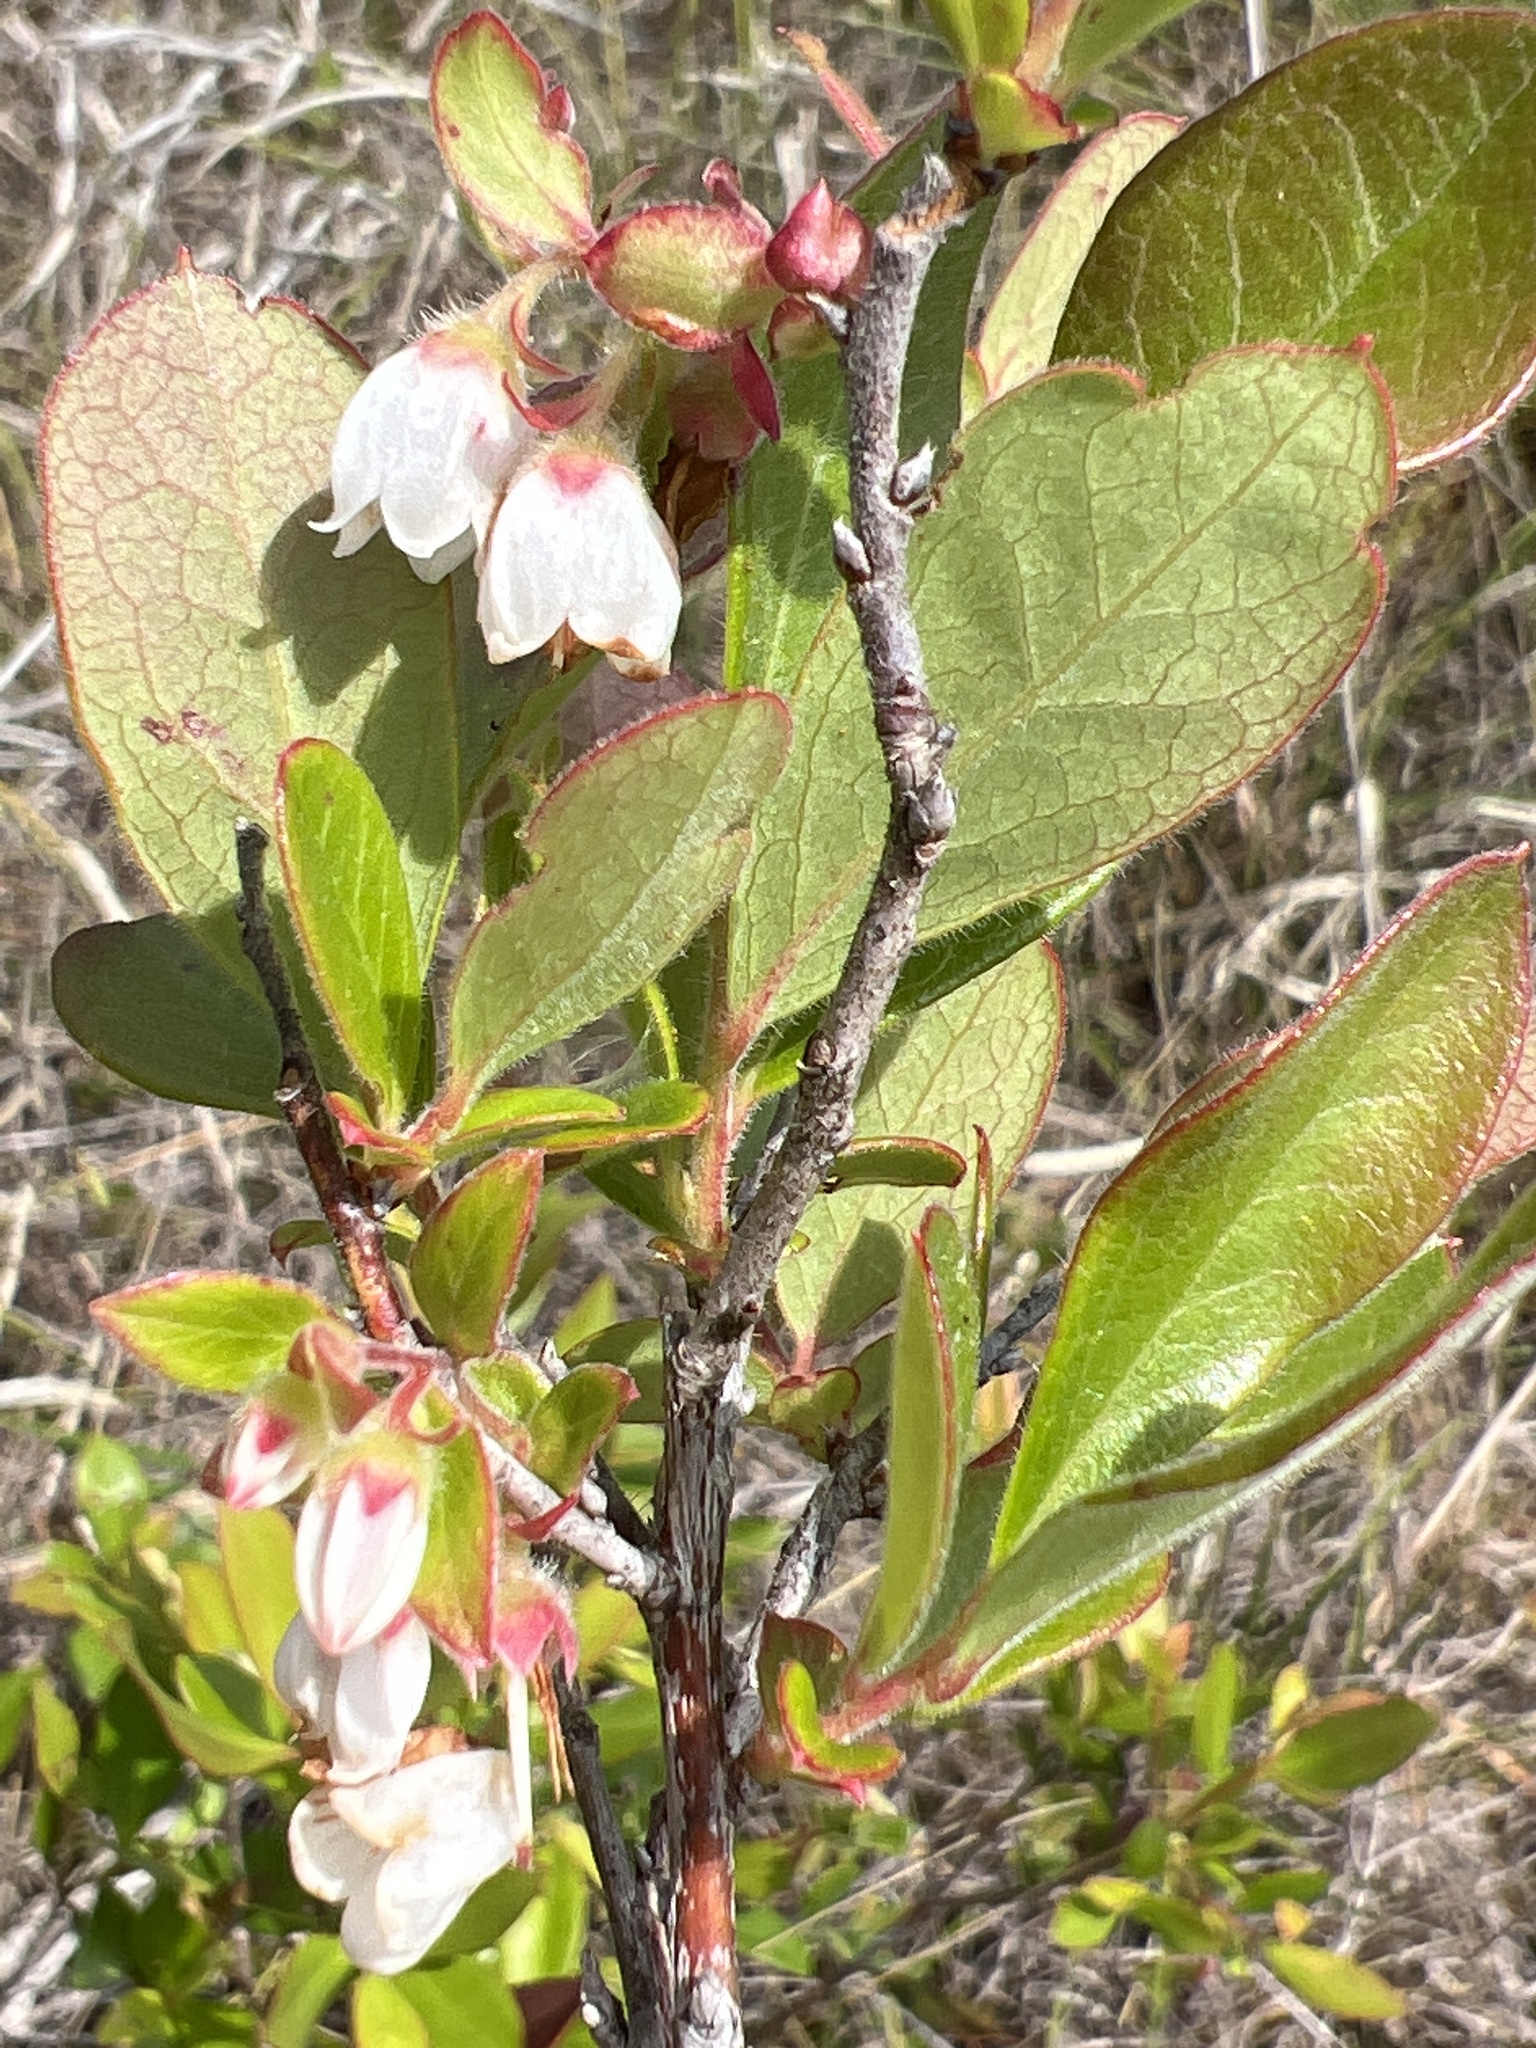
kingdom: Plantae
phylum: Tracheophyta
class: Magnoliopsida
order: Ericales
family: Ericaceae
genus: Gaylussacia
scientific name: Gaylussacia mosieri
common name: Hirsute huckleberry
